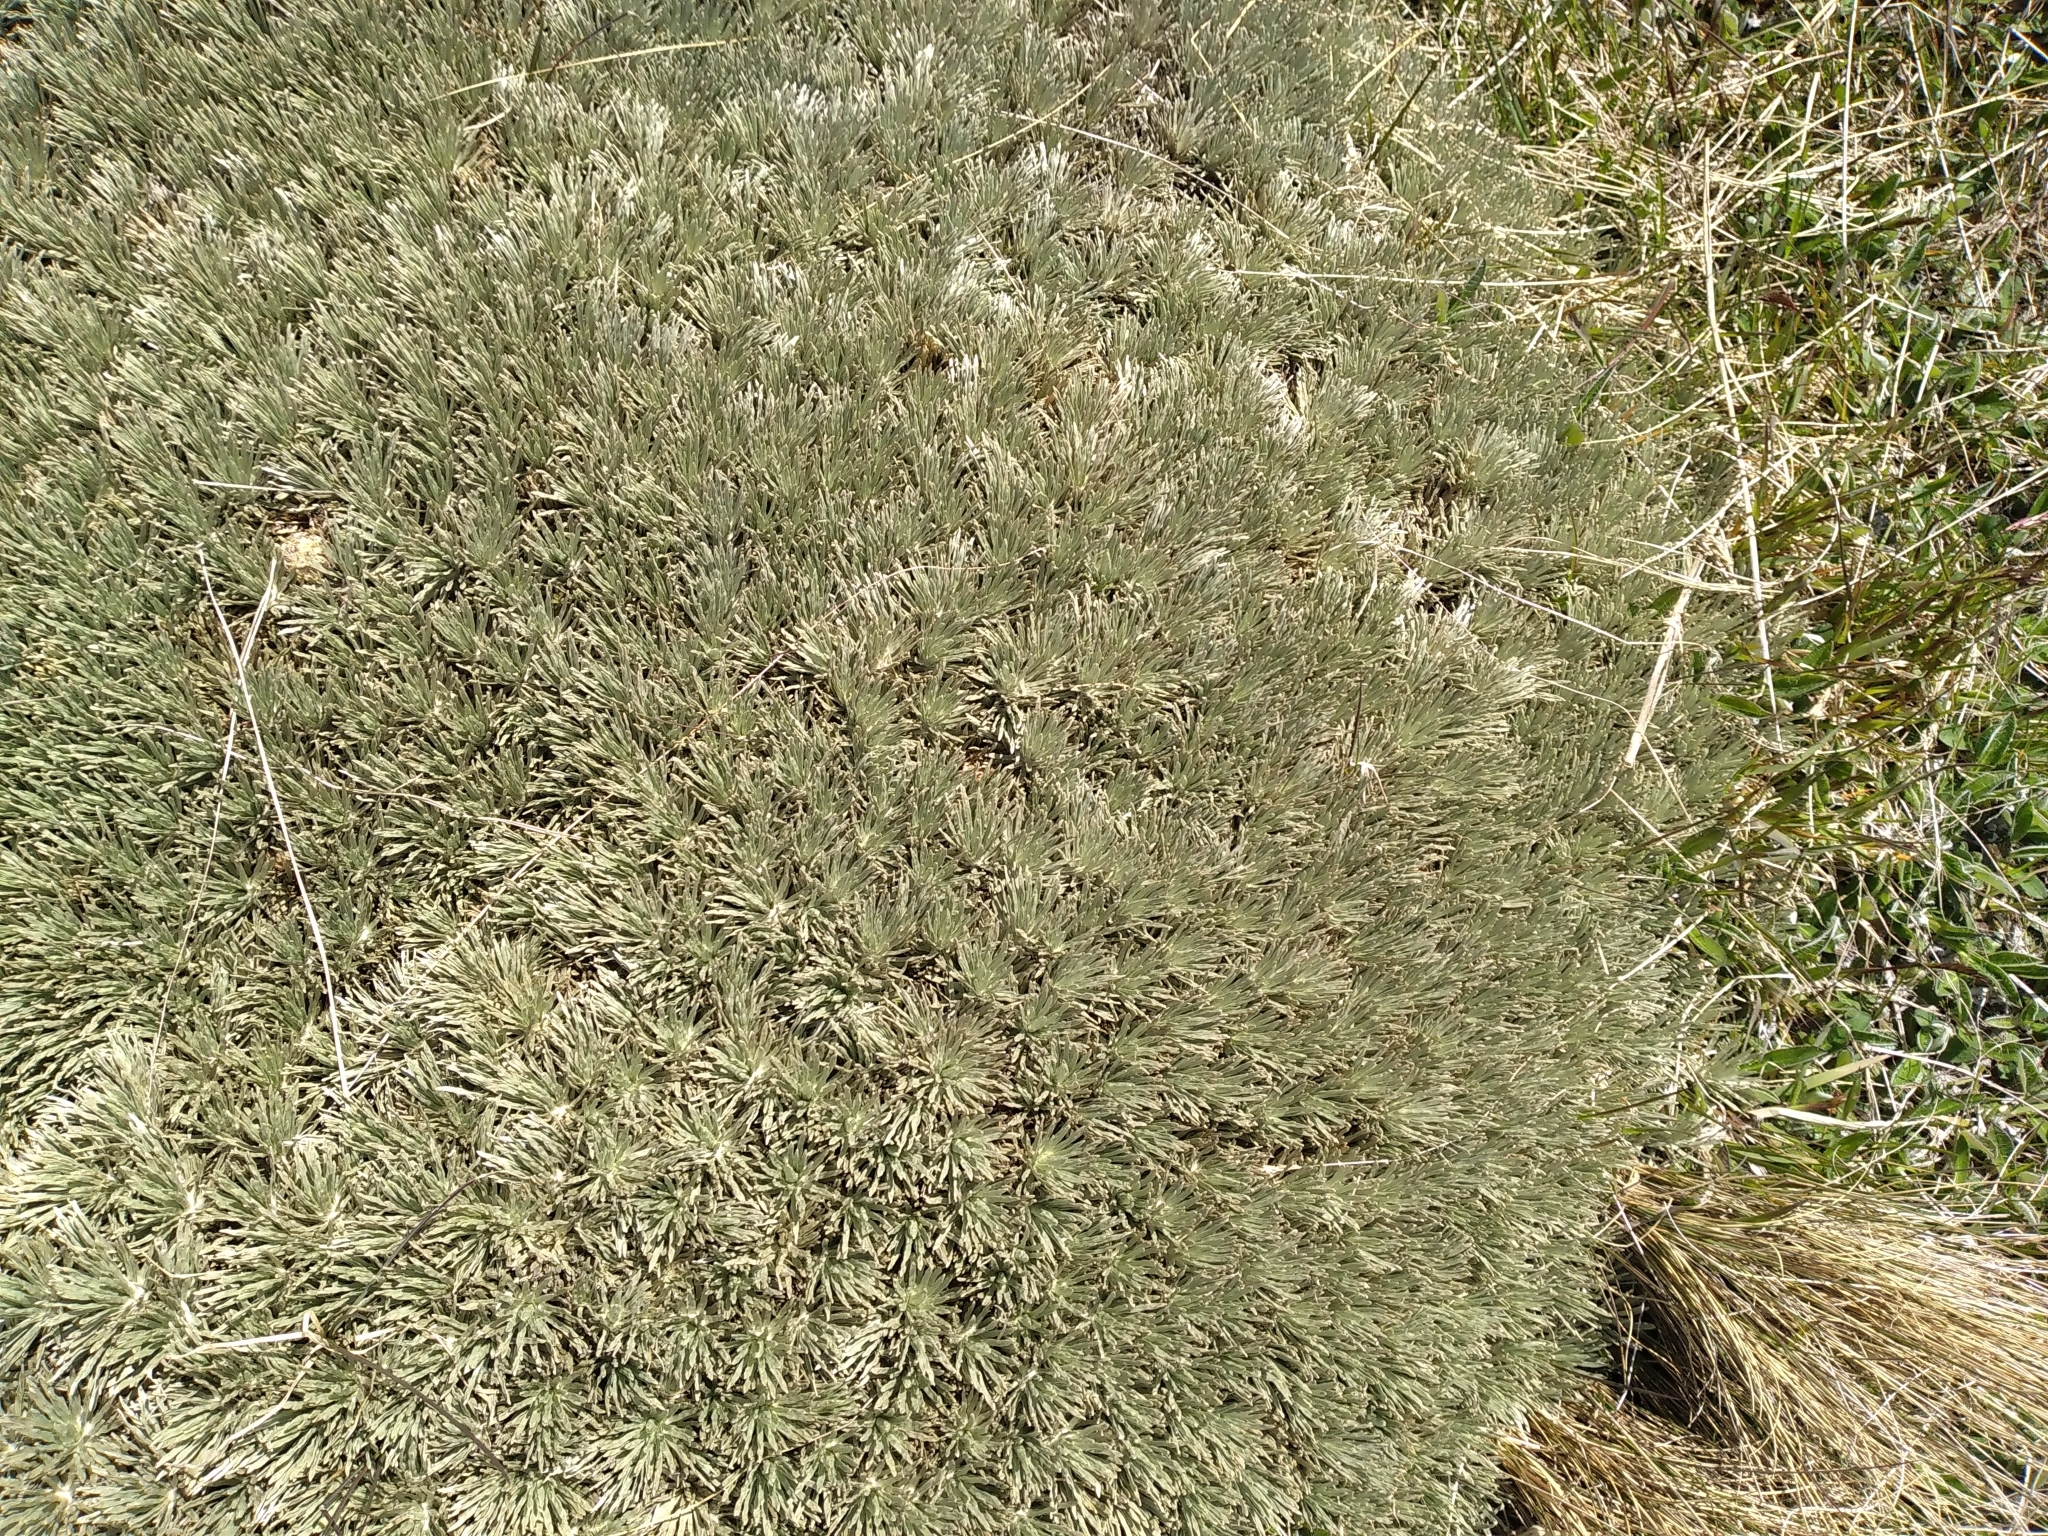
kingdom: Plantae
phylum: Tracheophyta
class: Magnoliopsida
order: Asterales
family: Asteraceae
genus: Celmisia
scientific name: Celmisia sessiliflora
